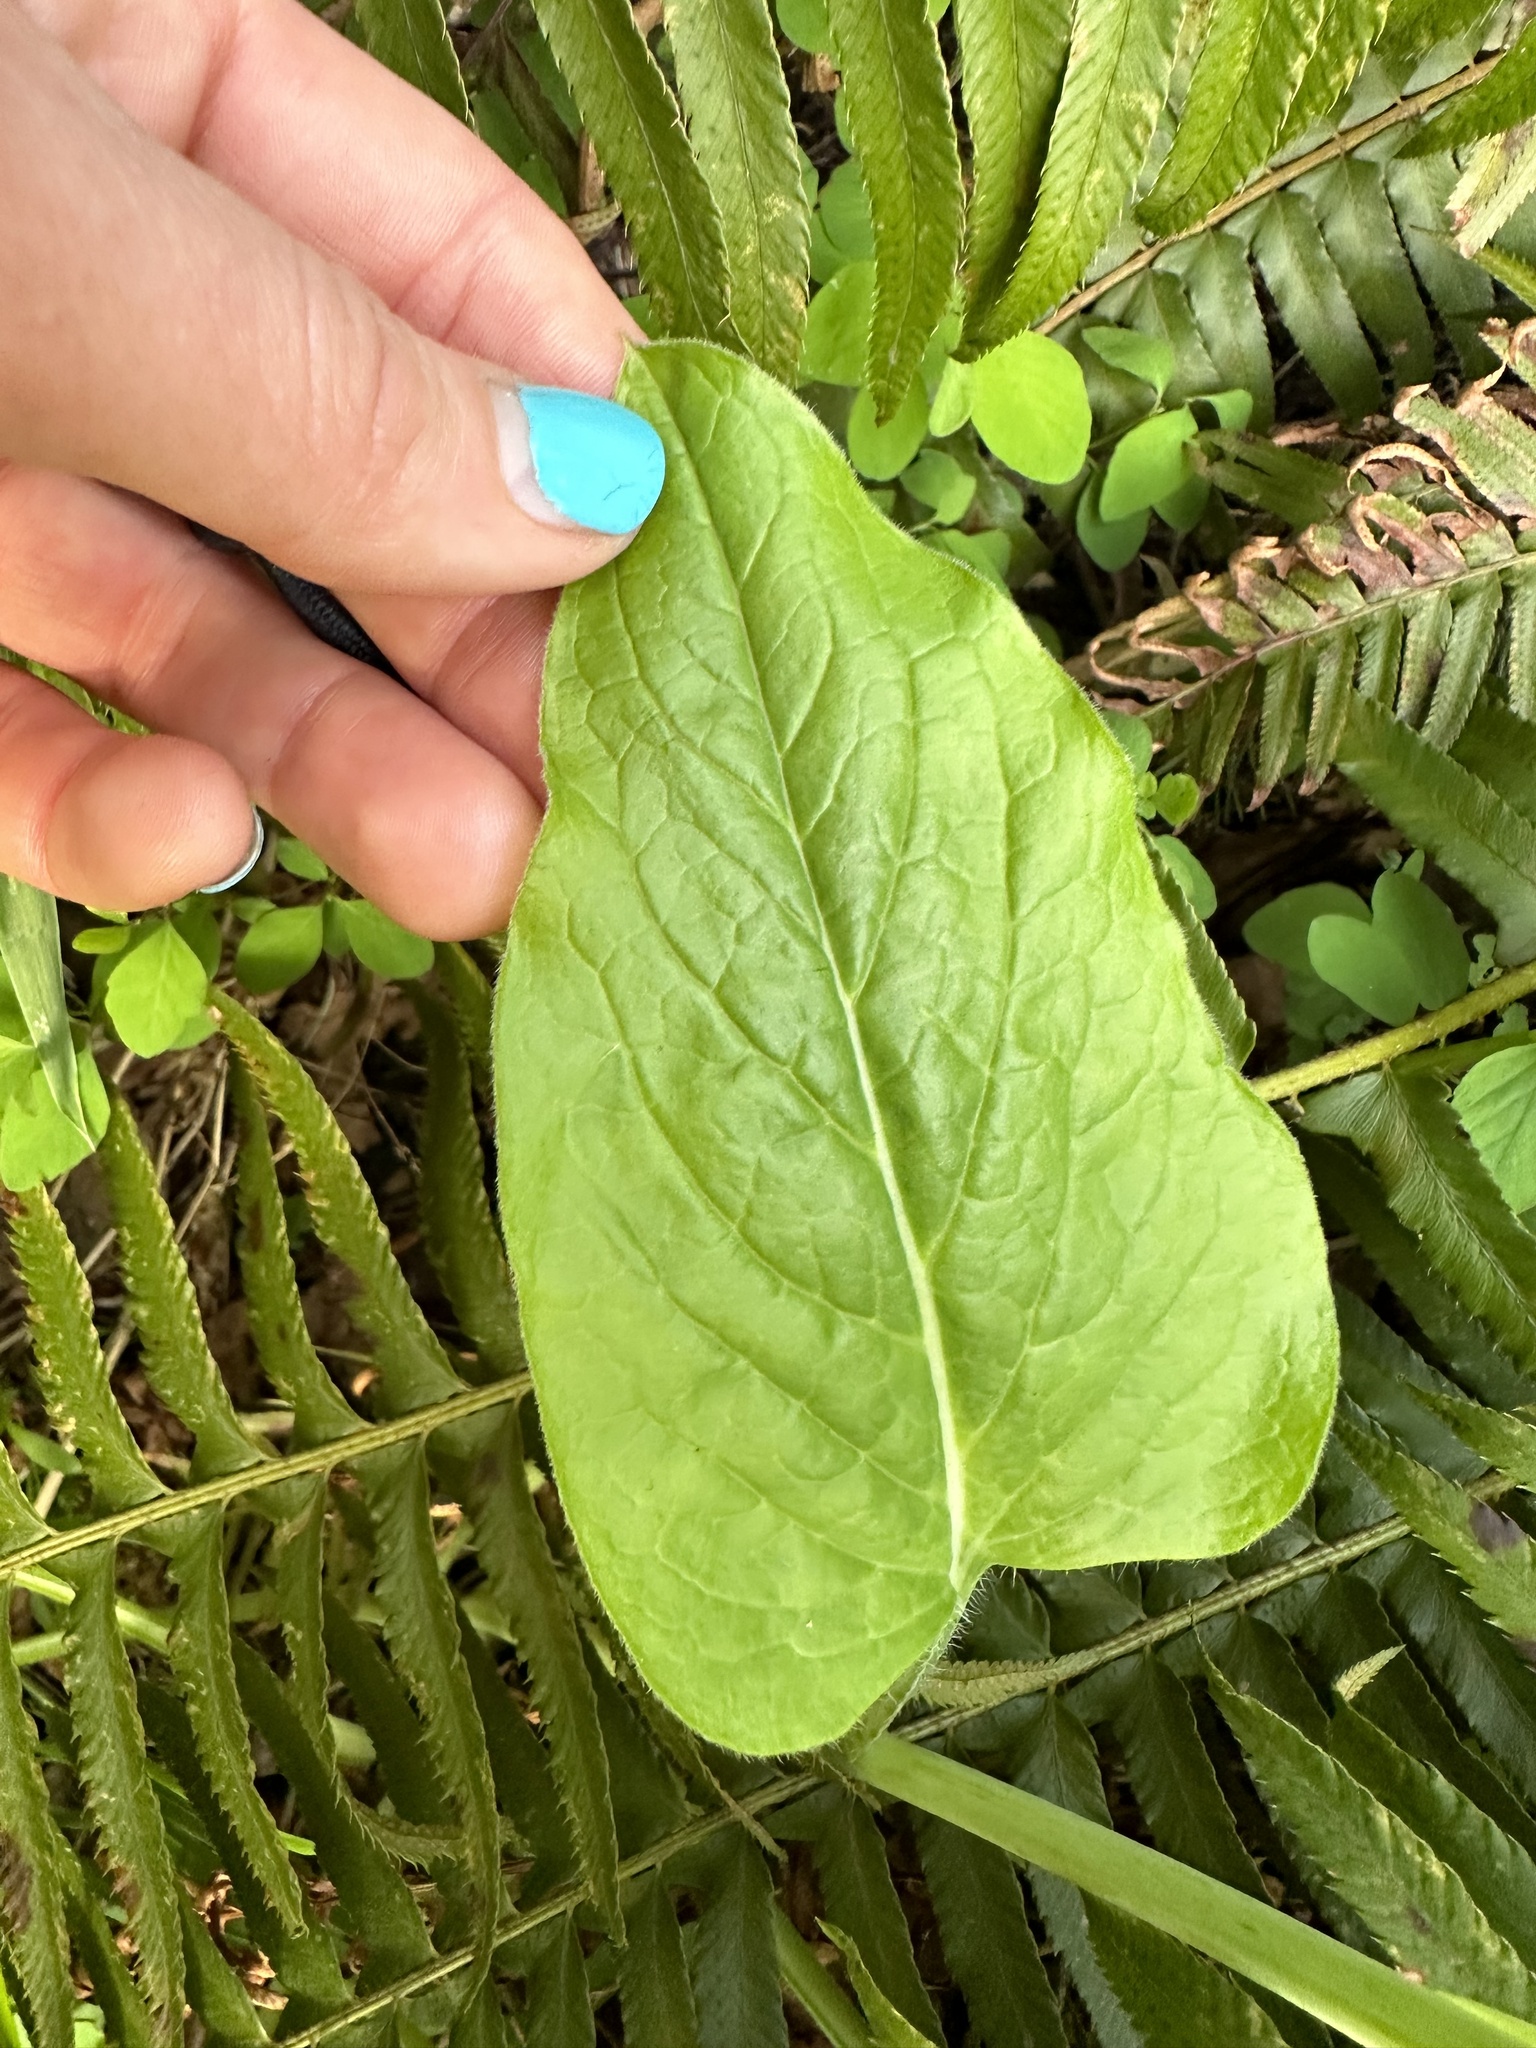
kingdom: Plantae
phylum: Tracheophyta
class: Magnoliopsida
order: Boraginales
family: Boraginaceae
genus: Adelinia
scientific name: Adelinia grande
